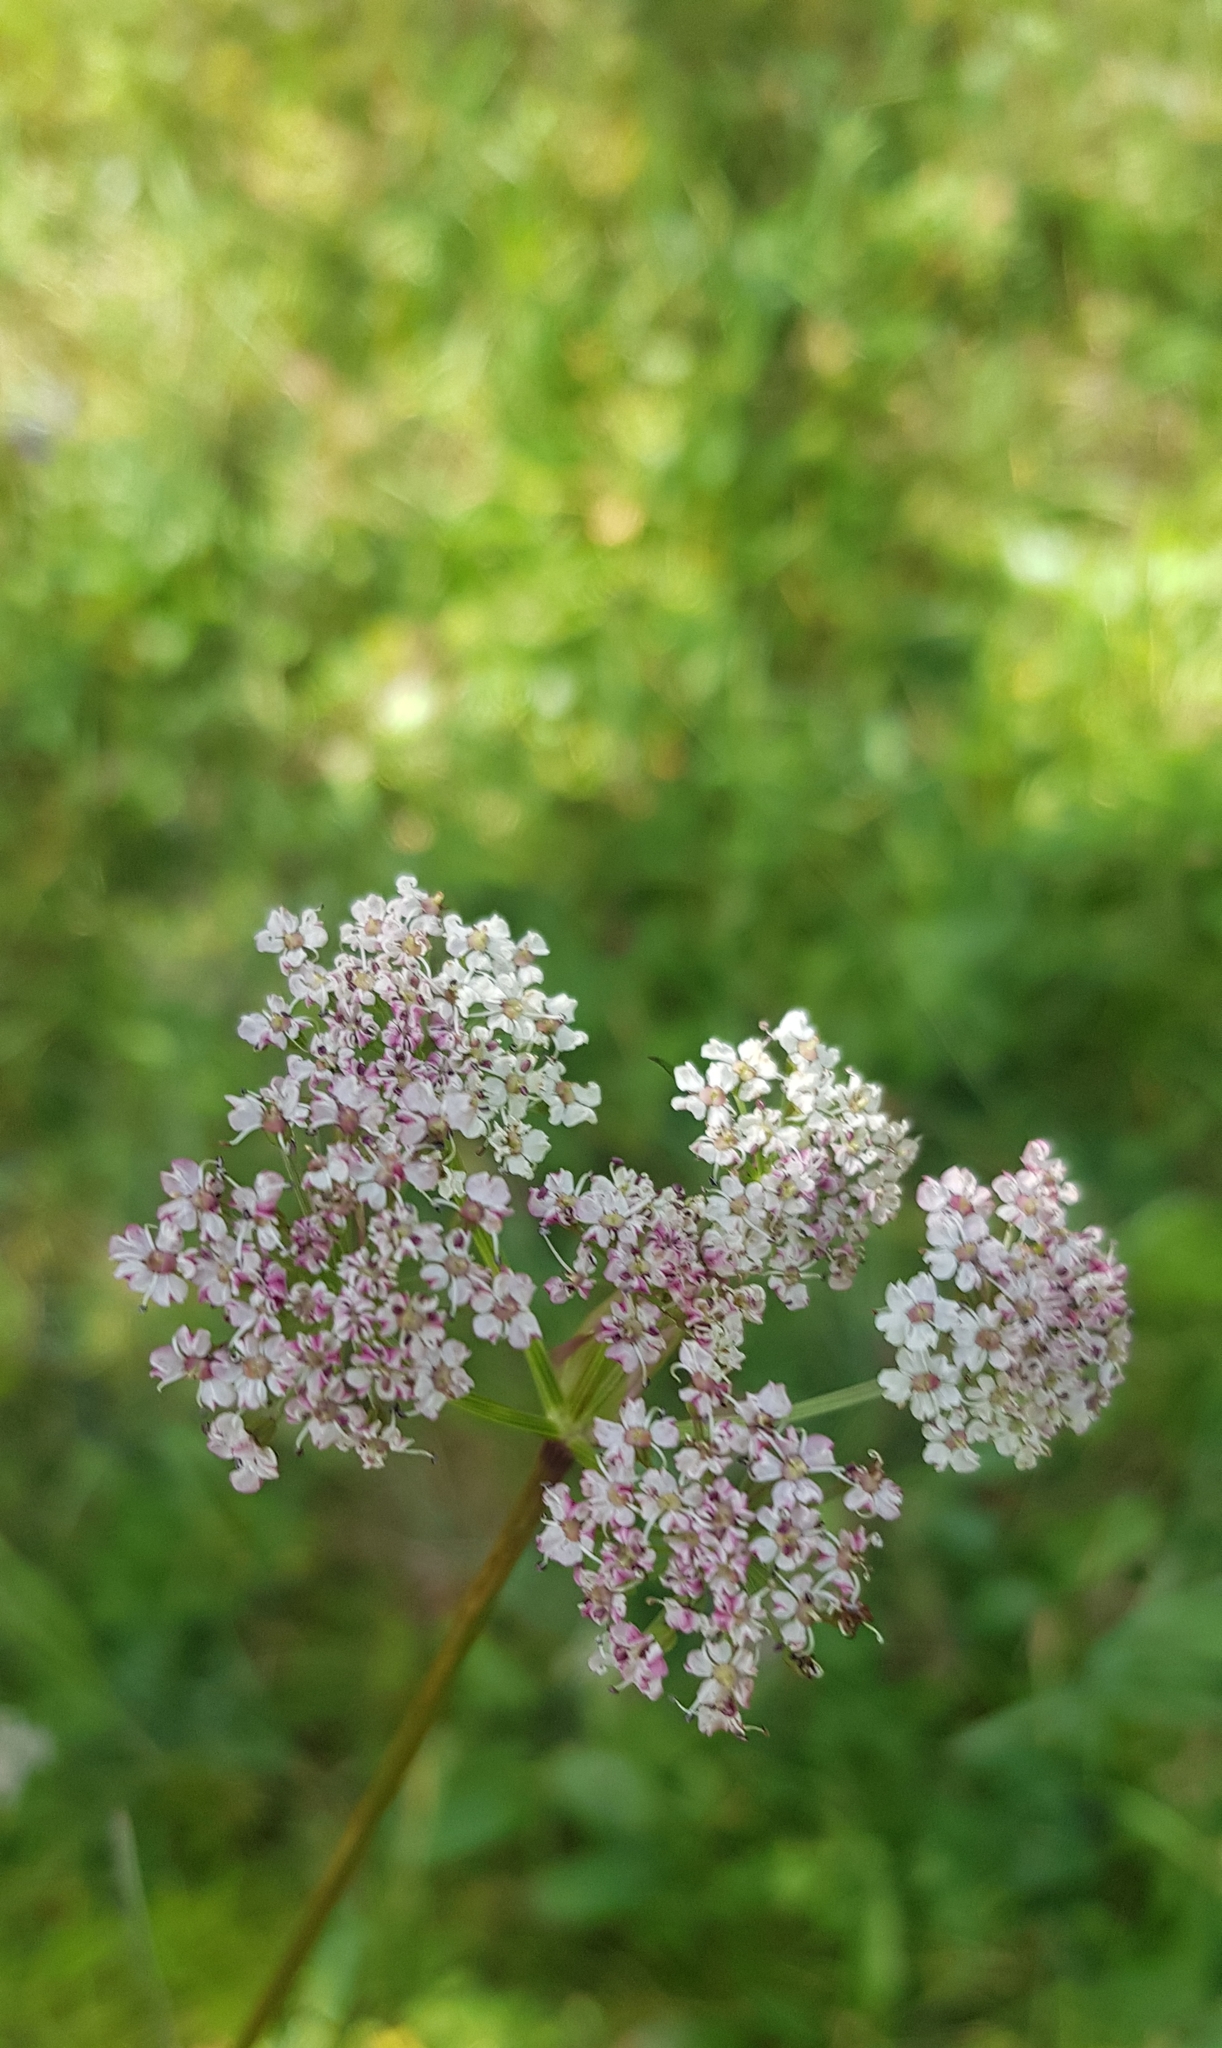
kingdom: Plantae
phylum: Tracheophyta
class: Magnoliopsida
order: Apiales
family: Apiaceae
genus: Ostericum
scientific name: Ostericum tenuifolium
